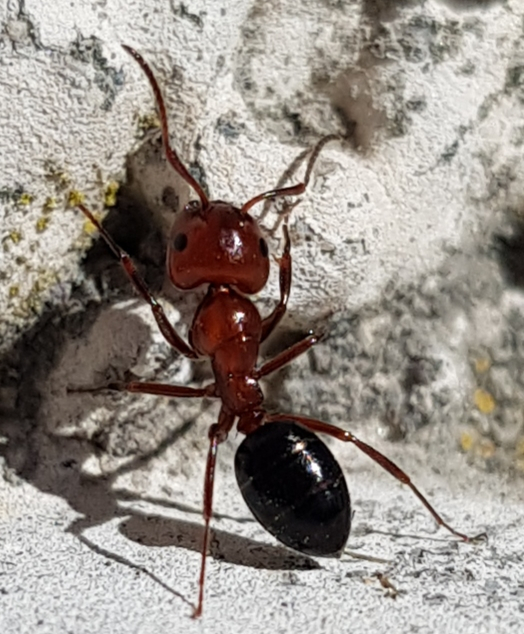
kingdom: Animalia
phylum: Arthropoda
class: Insecta
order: Hymenoptera
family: Formicidae
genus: Camponotus
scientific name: Camponotus lateralis
